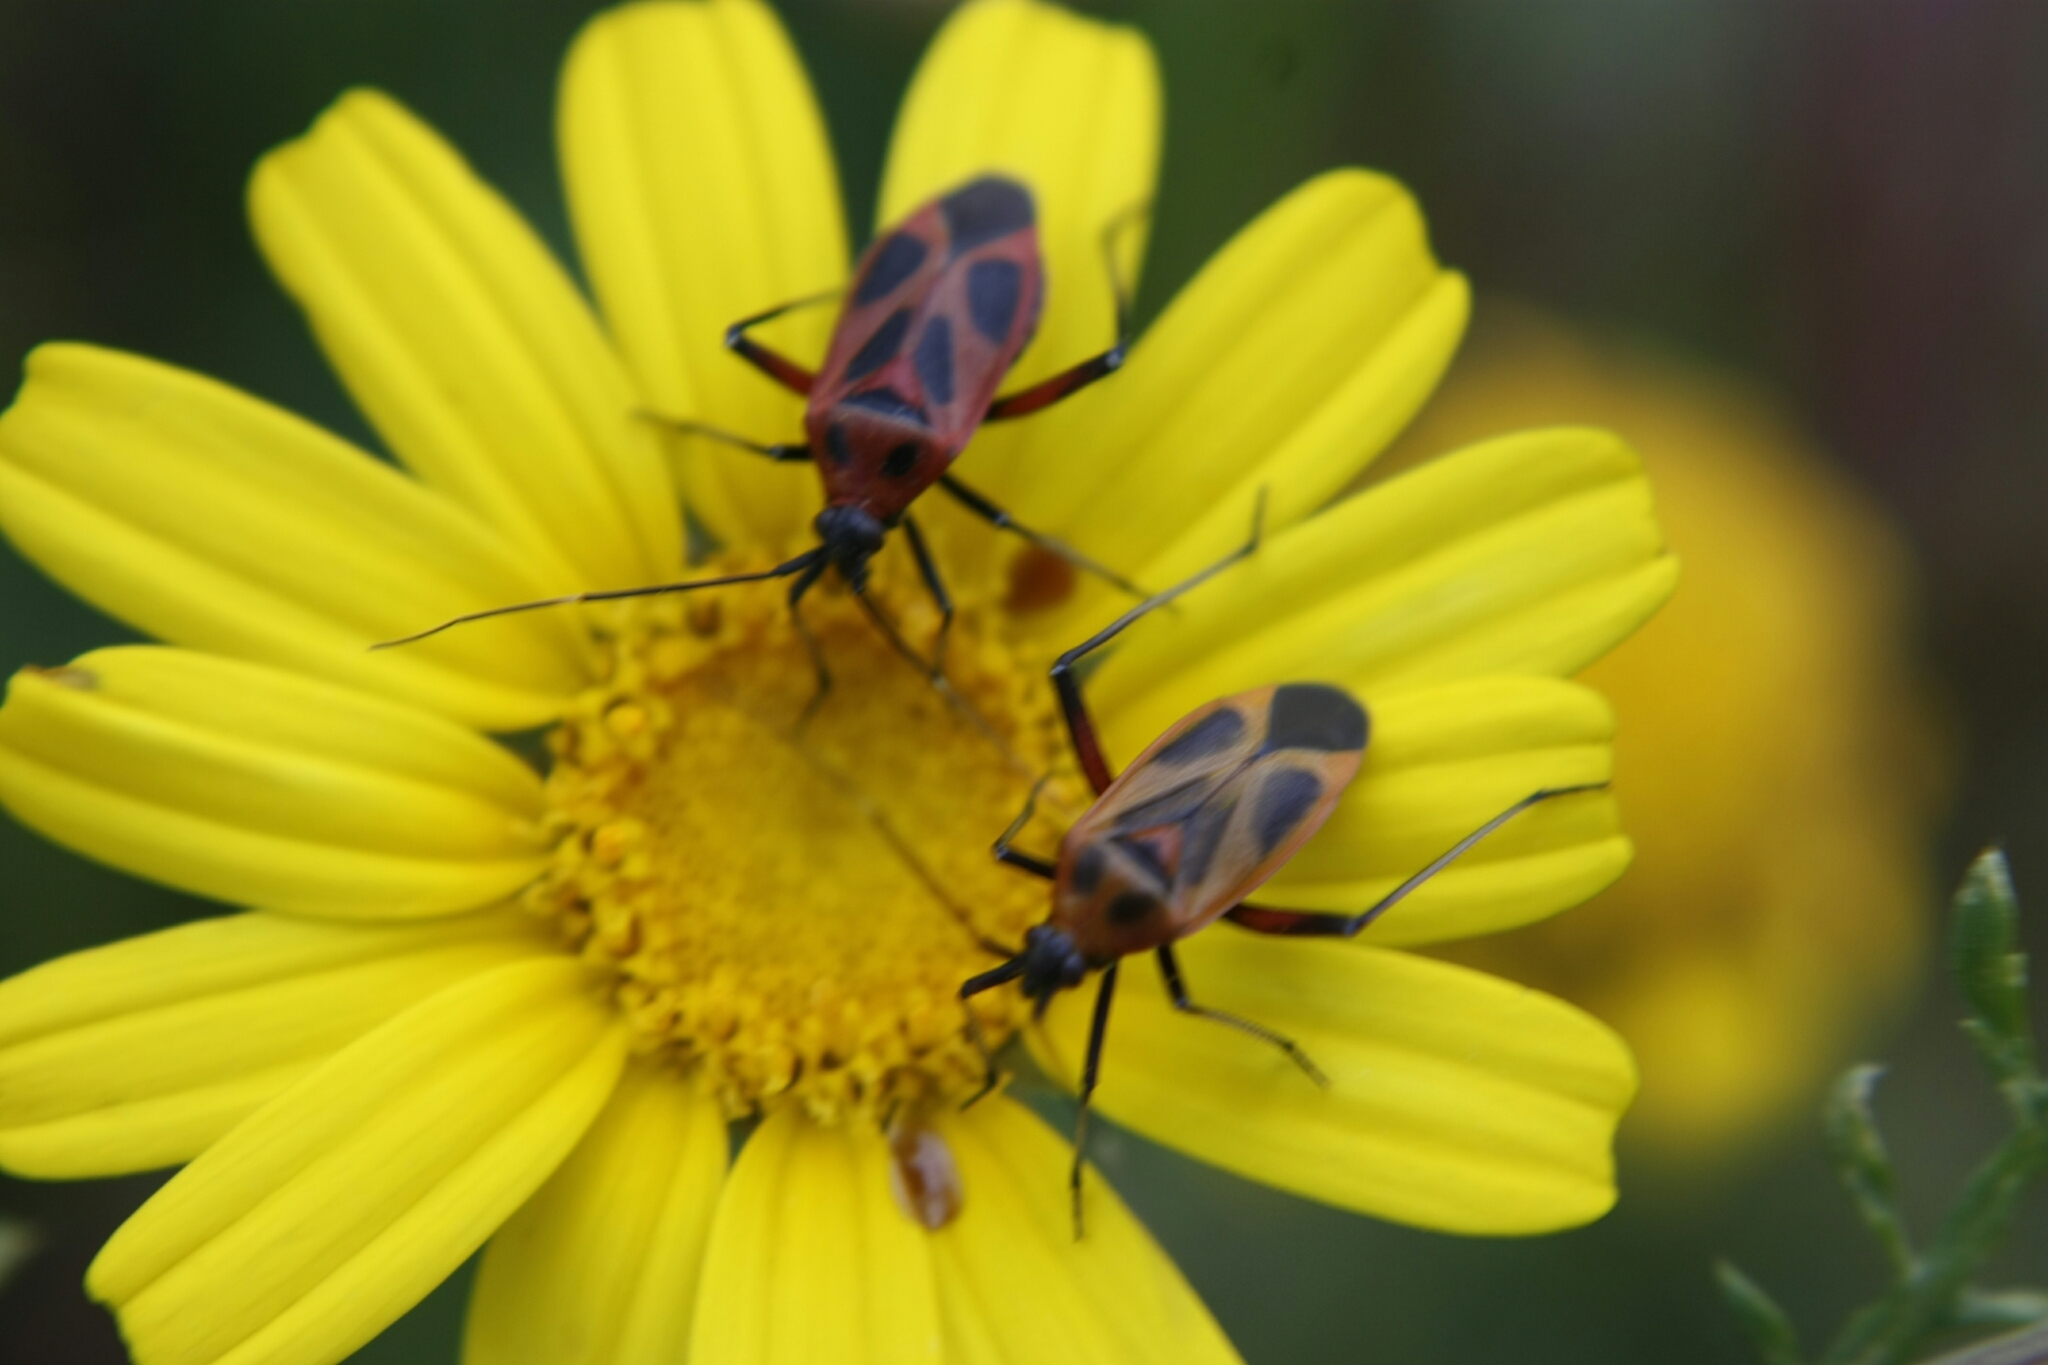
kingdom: Animalia
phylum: Arthropoda
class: Insecta
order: Hemiptera
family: Miridae
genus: Calocoris
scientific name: Calocoris nemoralis
